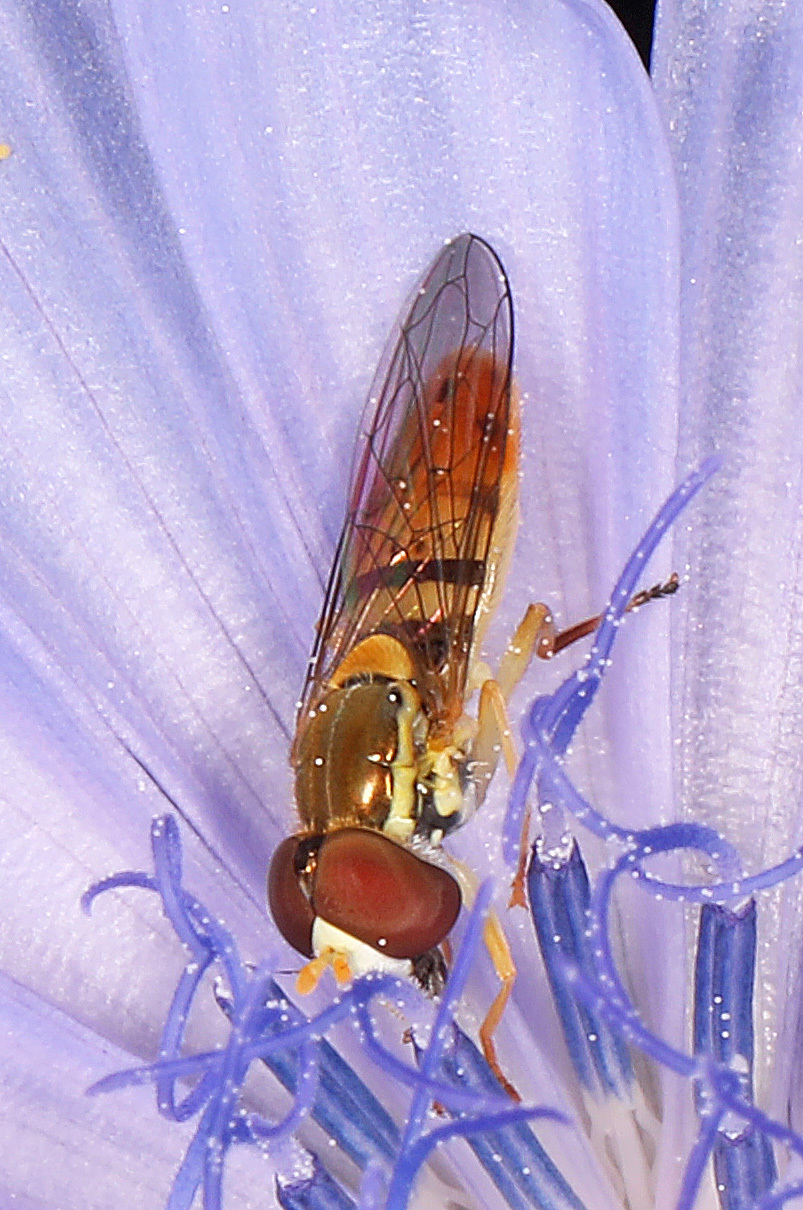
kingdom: Animalia
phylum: Arthropoda
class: Insecta
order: Diptera
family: Syrphidae
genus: Toxomerus
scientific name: Toxomerus marginatus
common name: Syrphid fly
